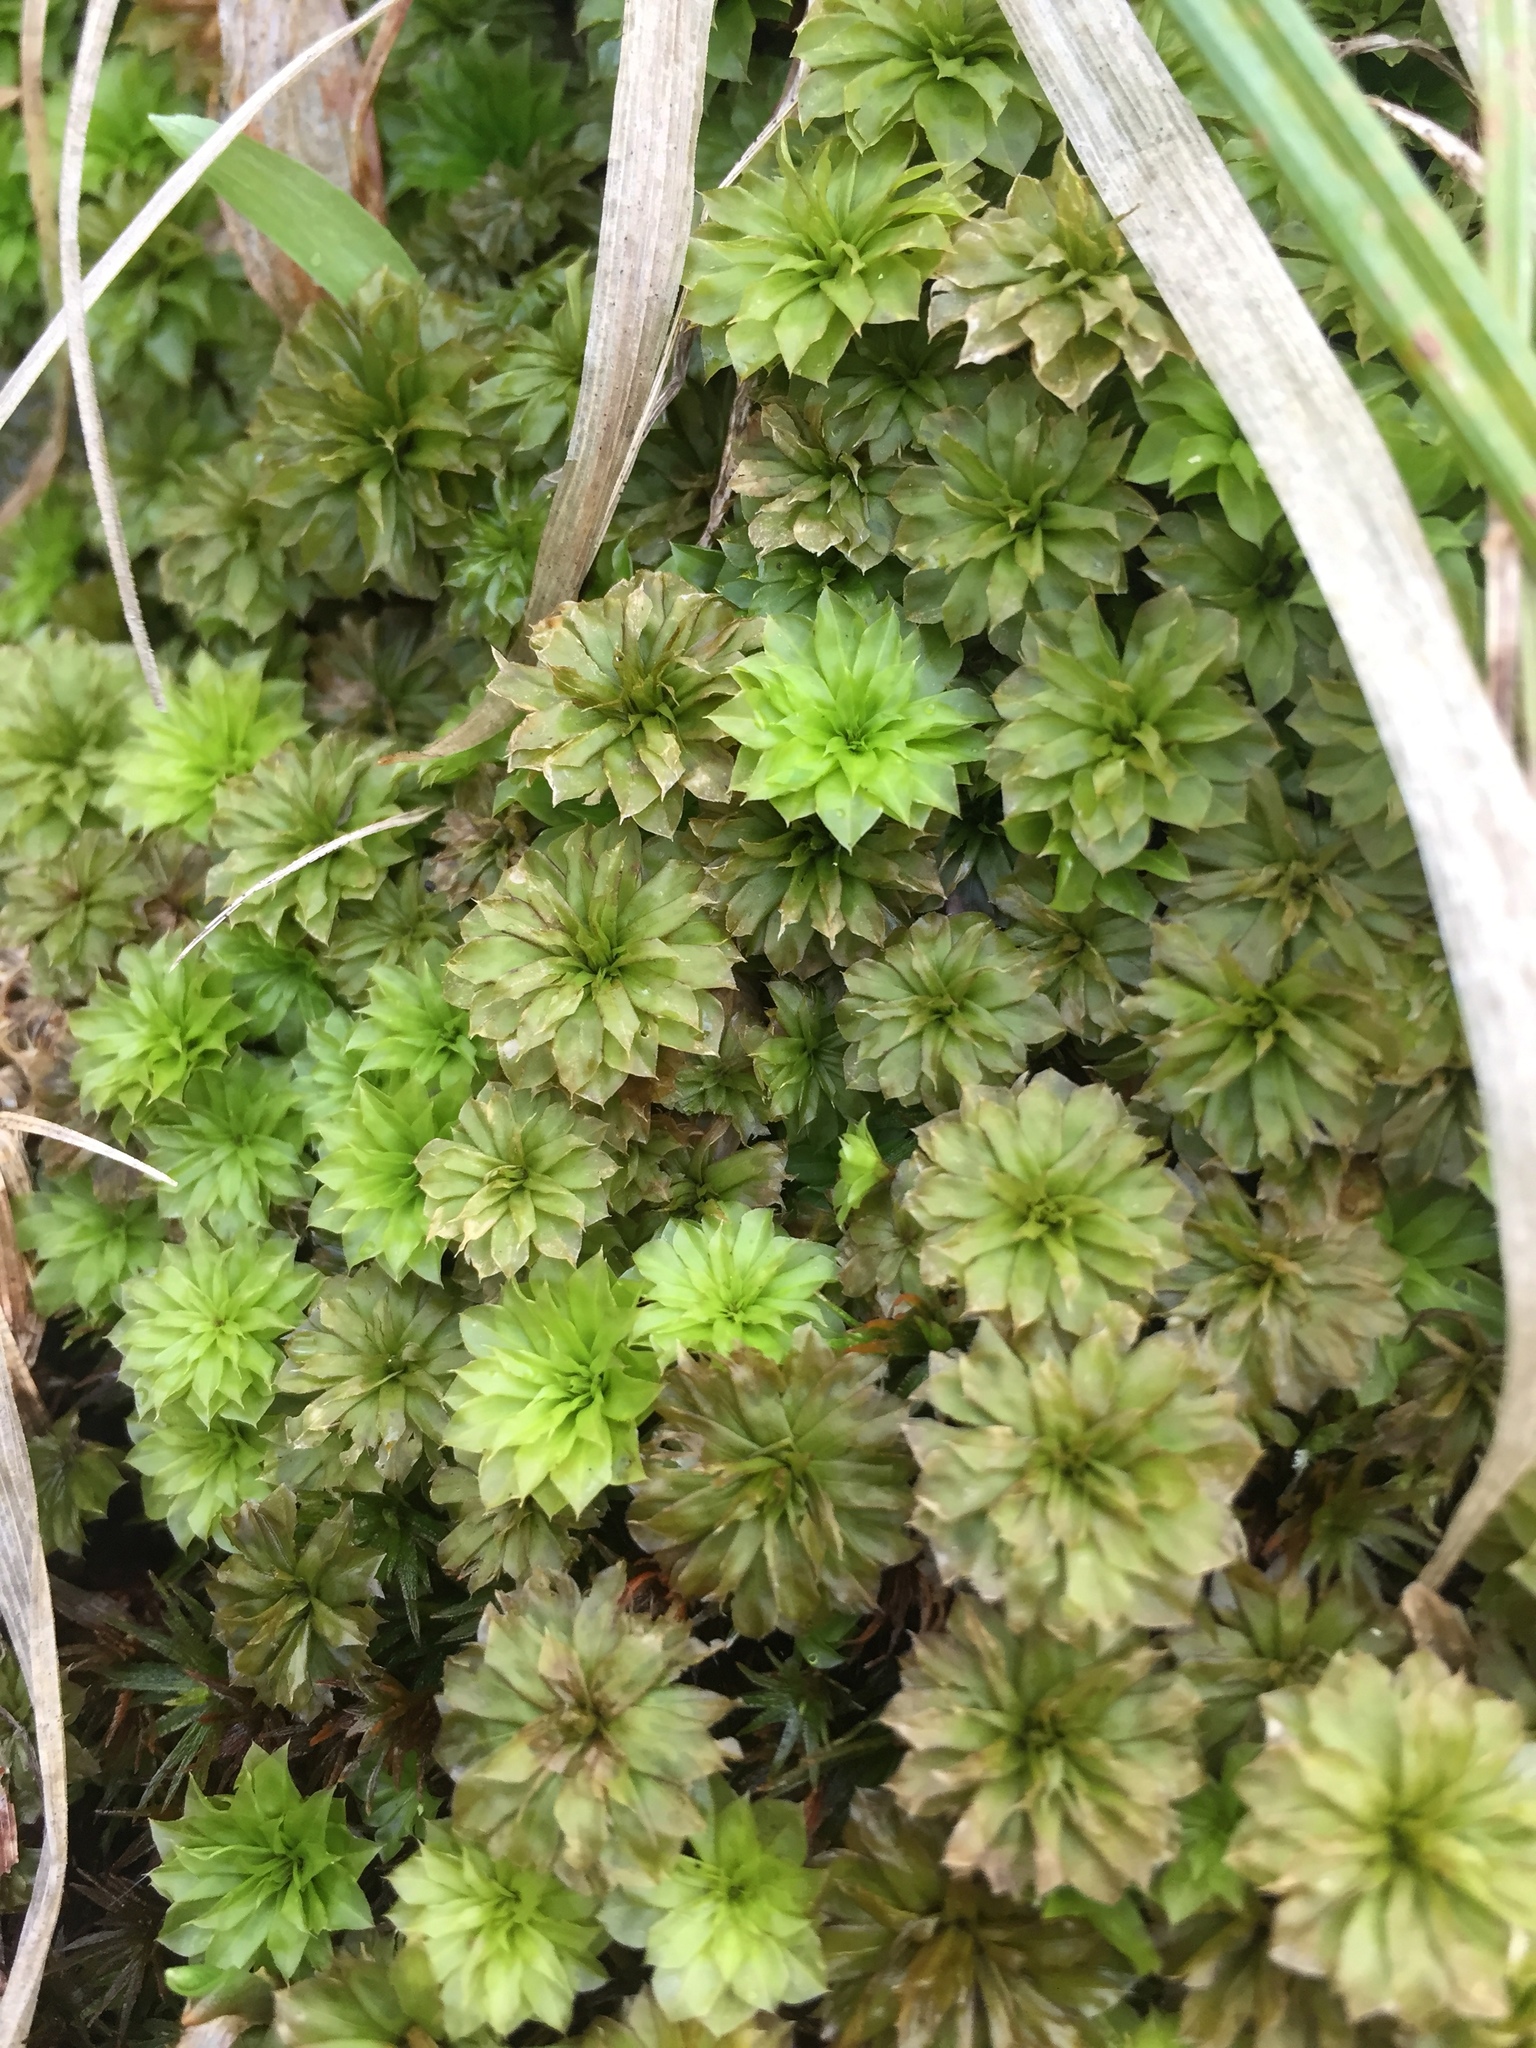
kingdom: Plantae
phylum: Bryophyta
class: Bryopsida
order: Bryales
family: Bryaceae
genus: Rhodobryum
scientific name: Rhodobryum ontariense
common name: Ontario rhodobryum moss
